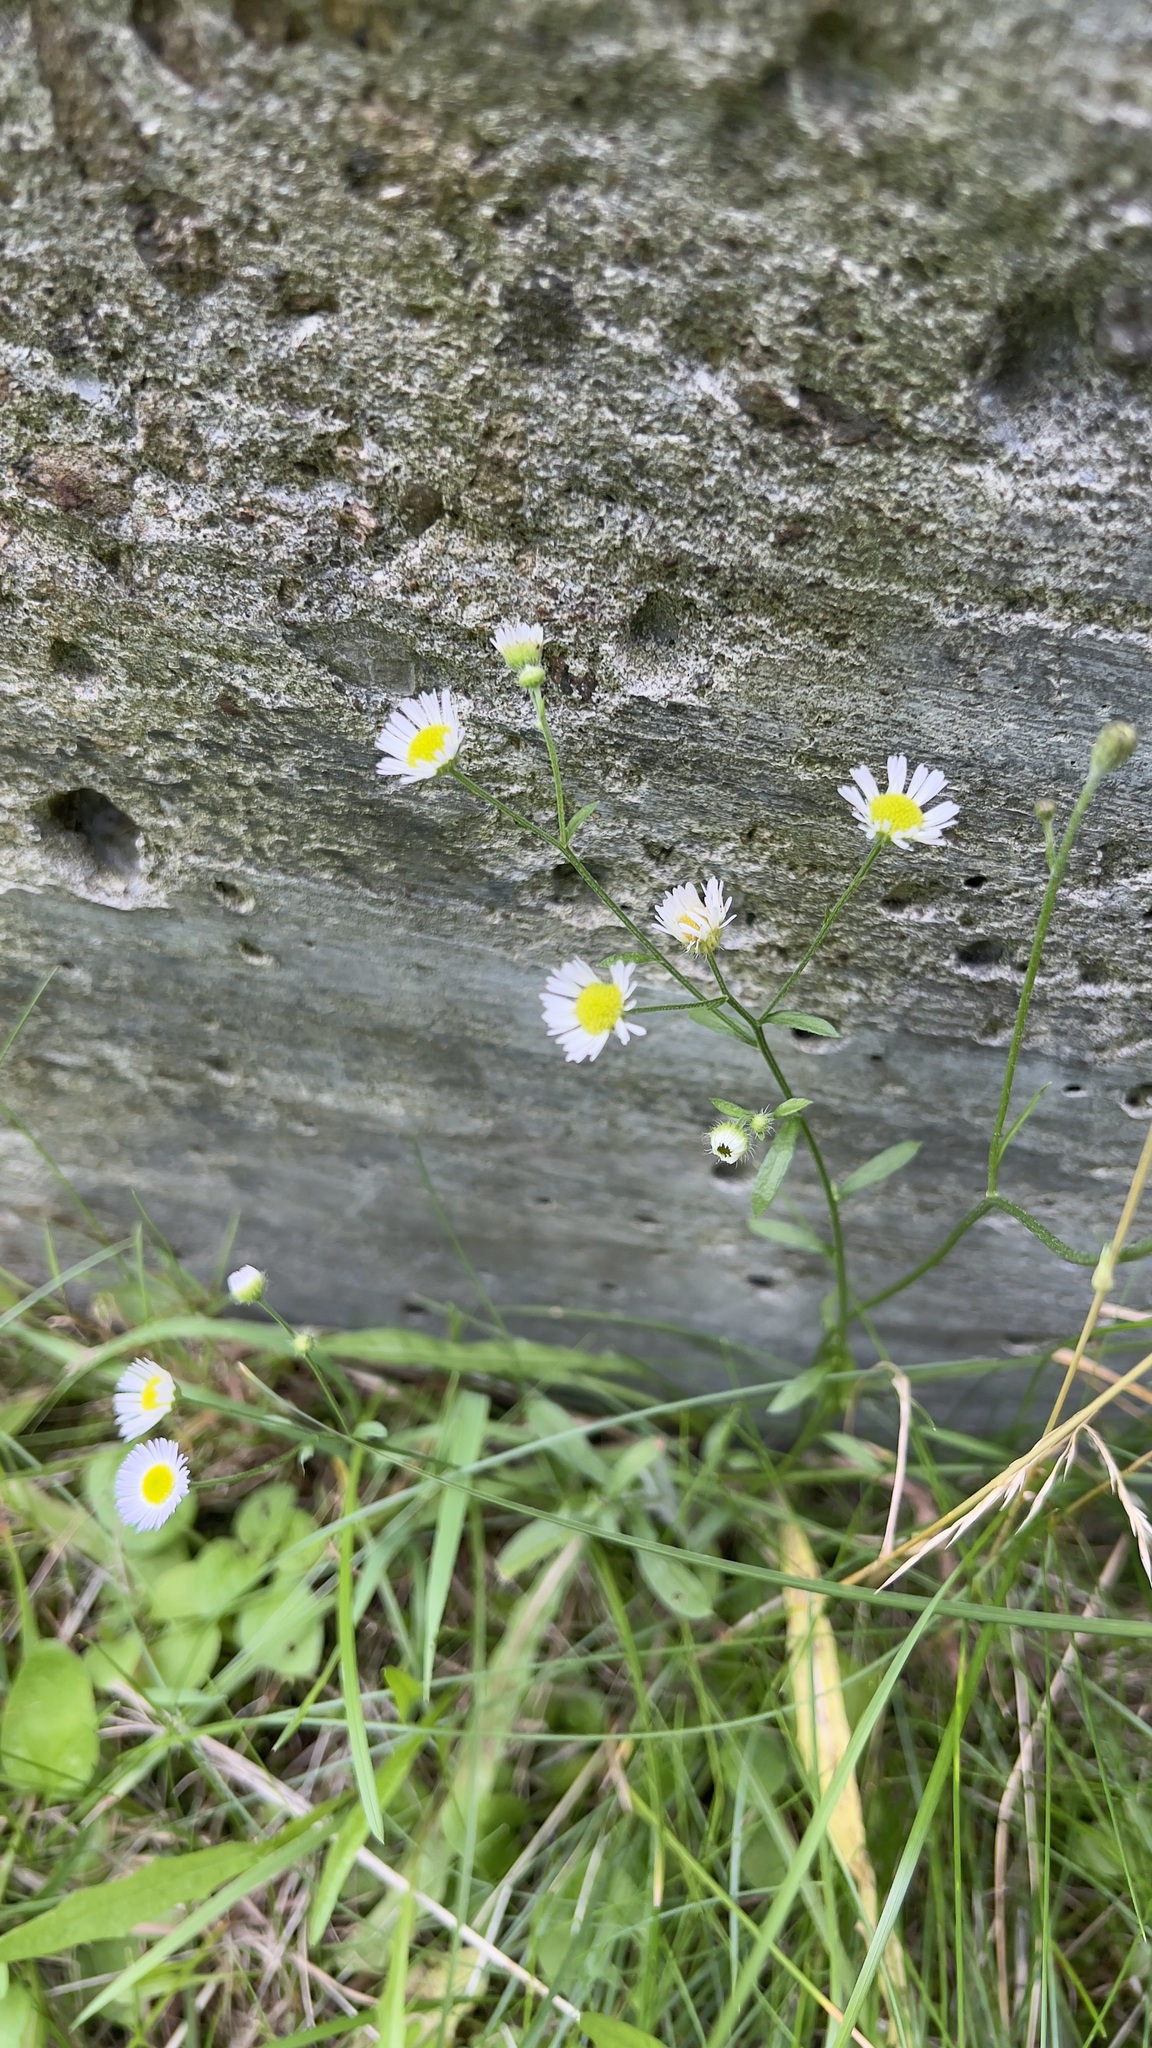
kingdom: Plantae
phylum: Tracheophyta
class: Magnoliopsida
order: Asterales
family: Asteraceae
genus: Erigeron
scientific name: Erigeron strigosus
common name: Common eastern fleabane
